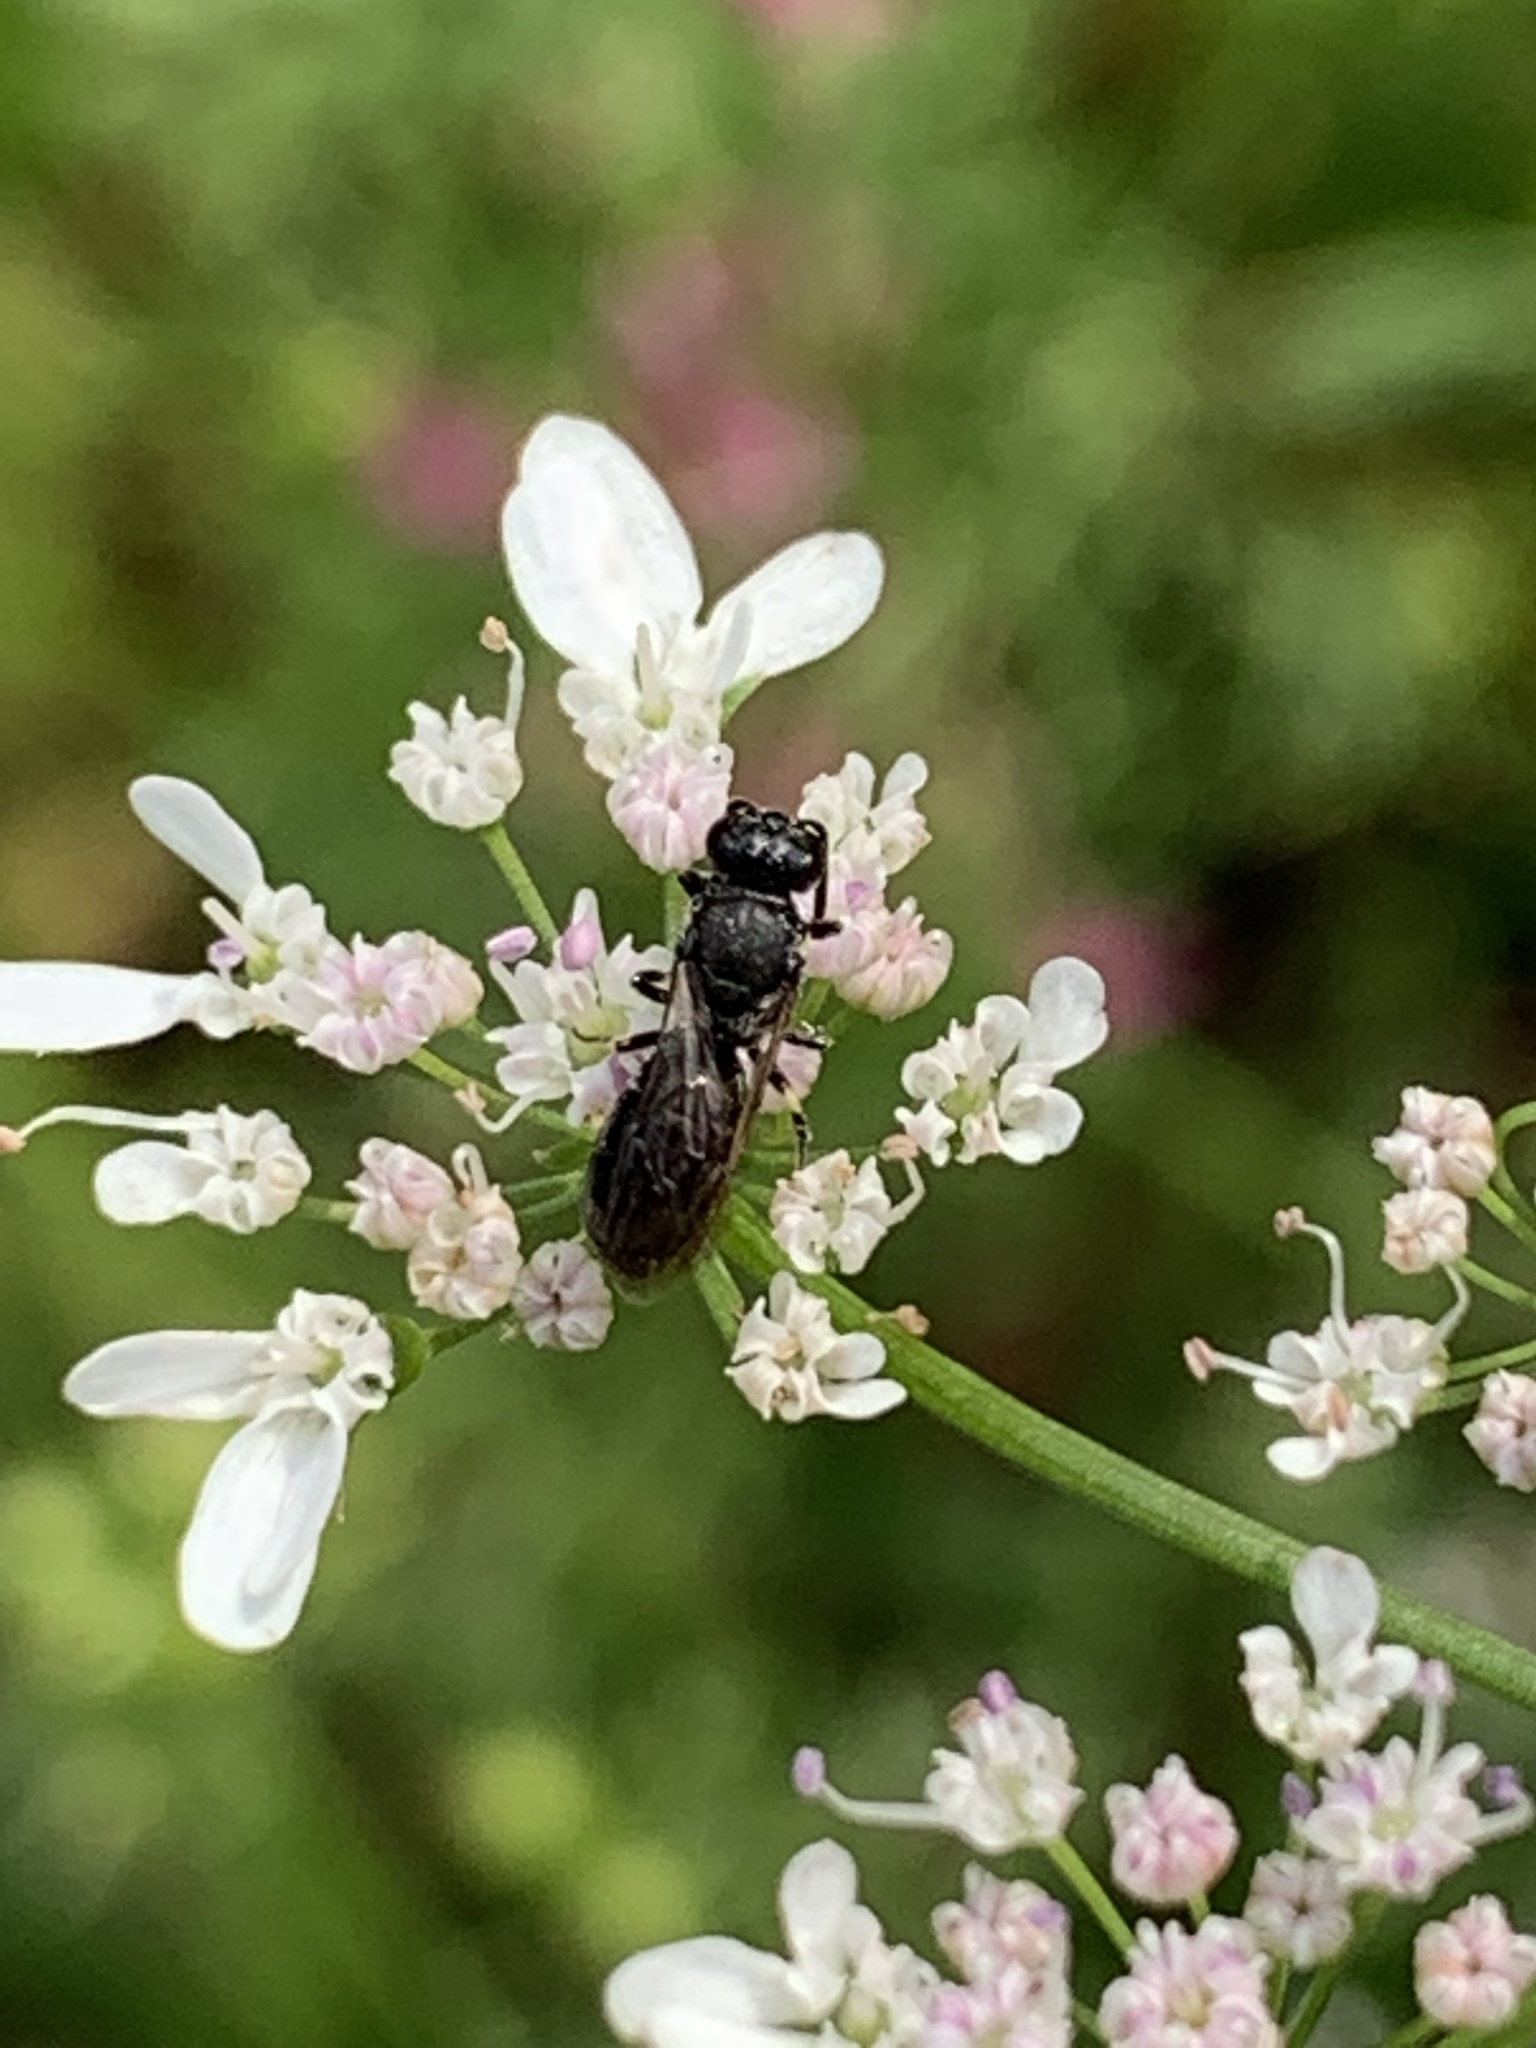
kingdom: Animalia
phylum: Arthropoda
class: Insecta
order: Hymenoptera
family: Colletidae
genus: Hylaeus
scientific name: Hylaeus
